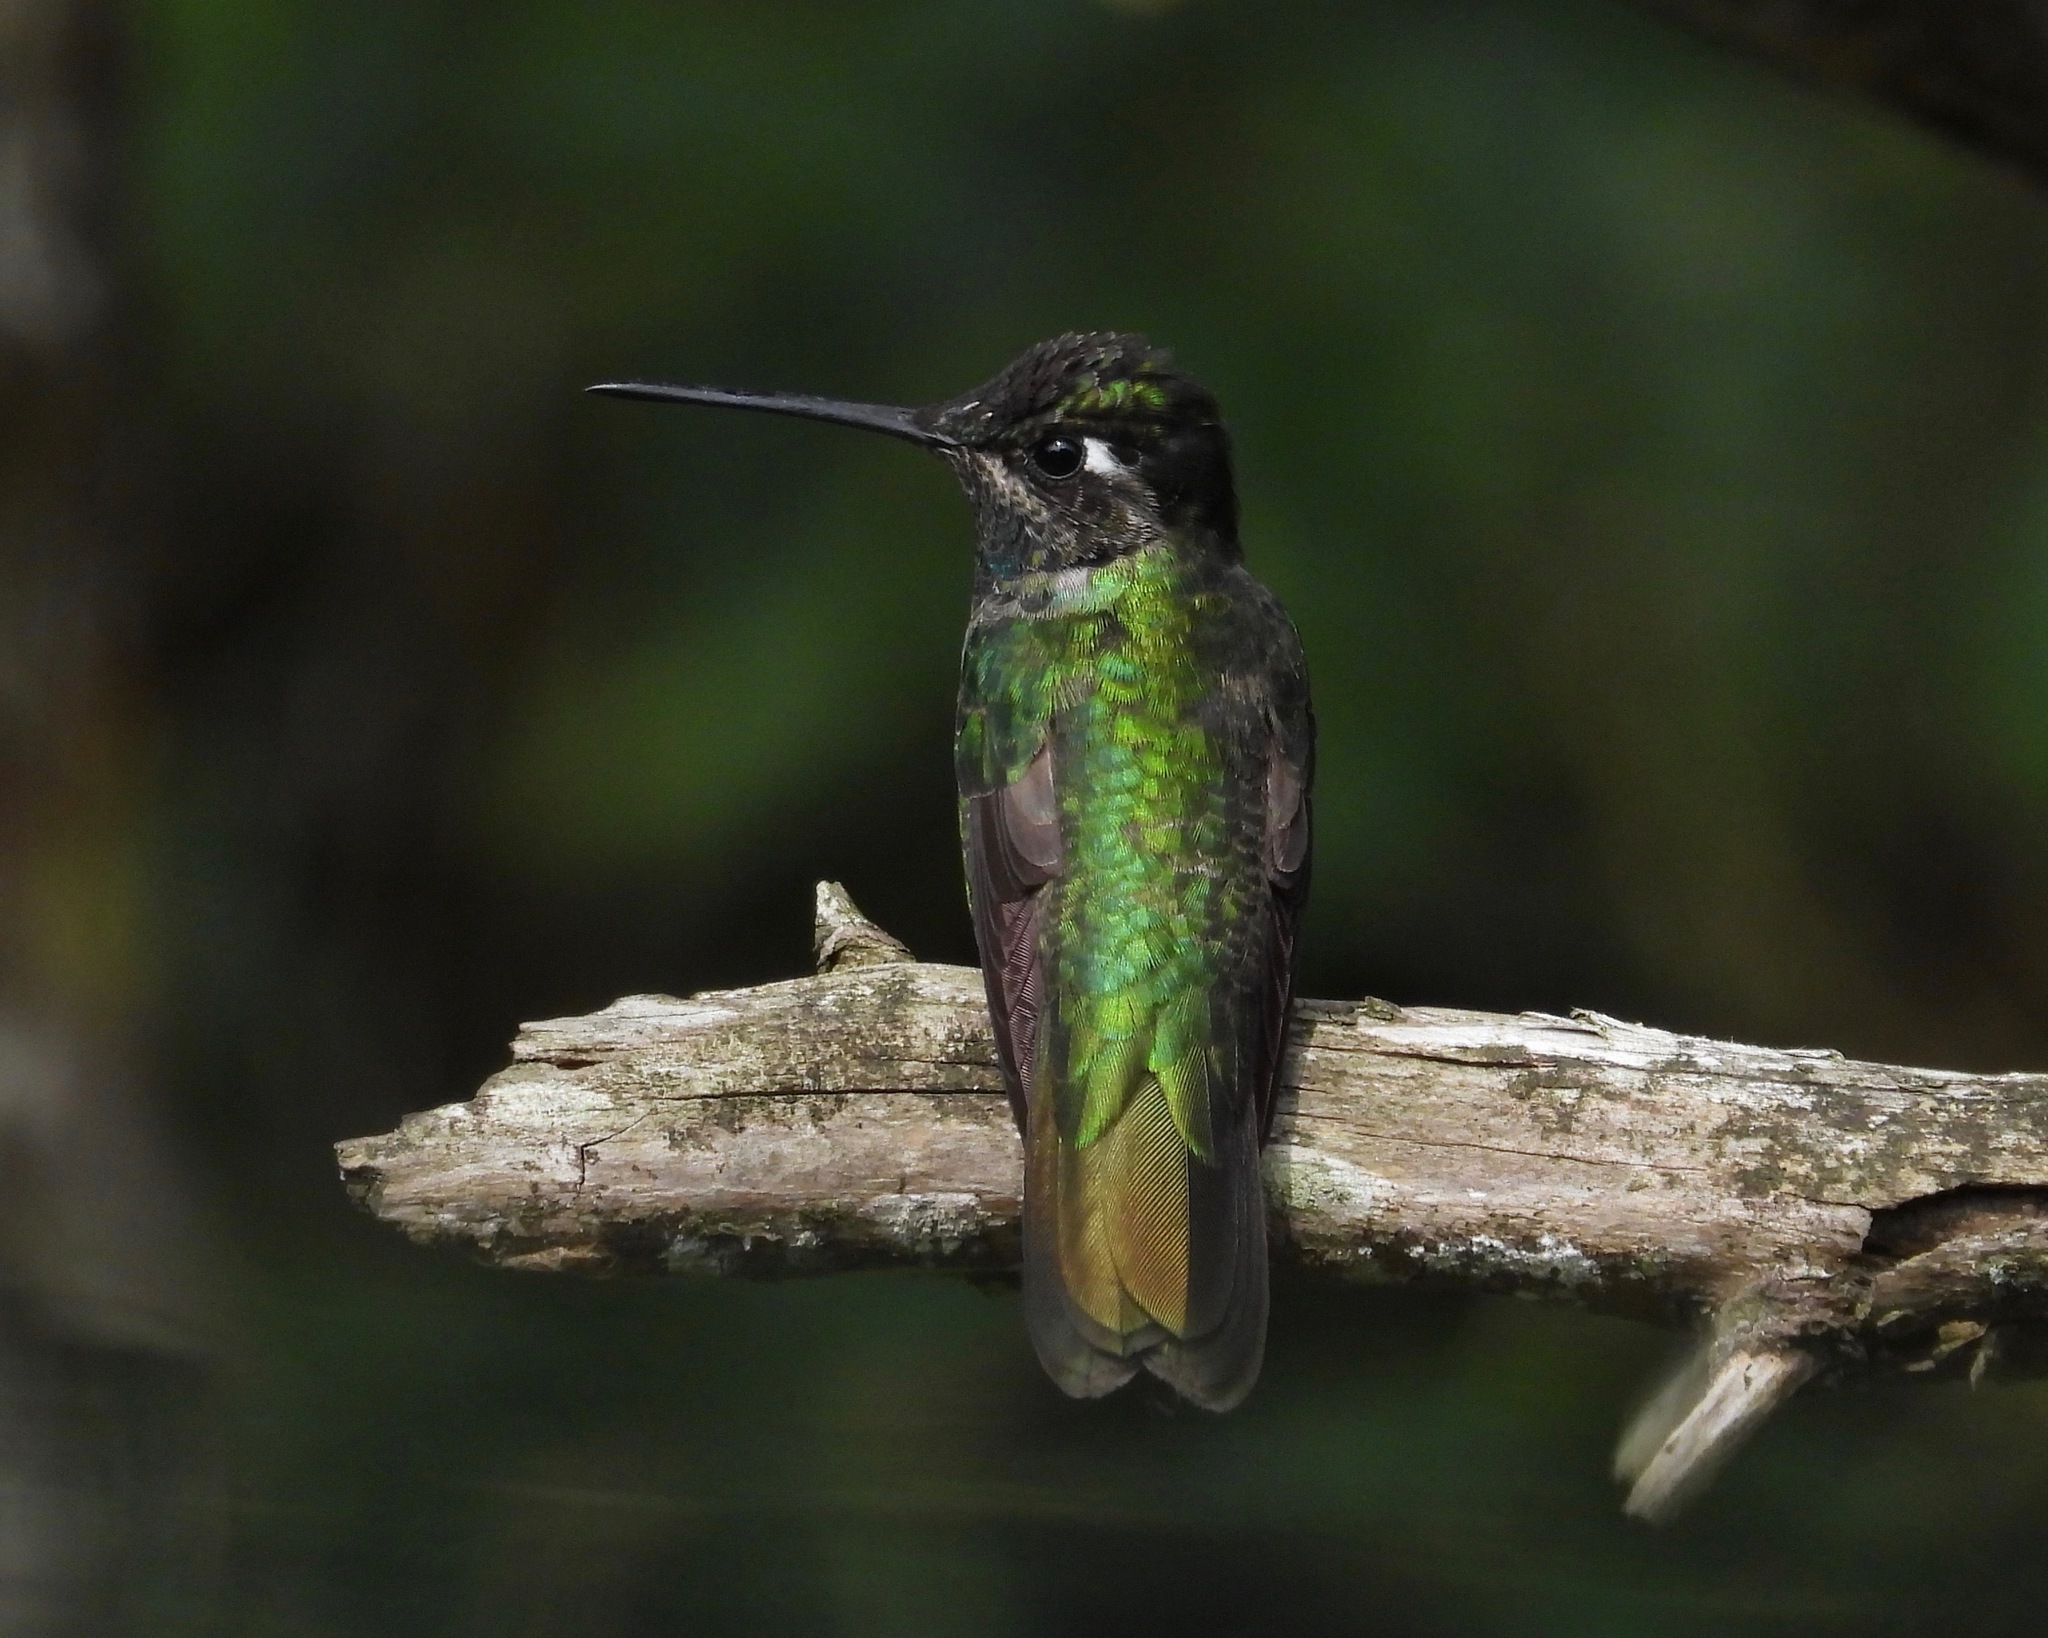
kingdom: Animalia
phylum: Chordata
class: Aves
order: Apodiformes
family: Trochilidae
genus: Eugenes
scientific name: Eugenes fulgens
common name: Magnificent hummingbird
